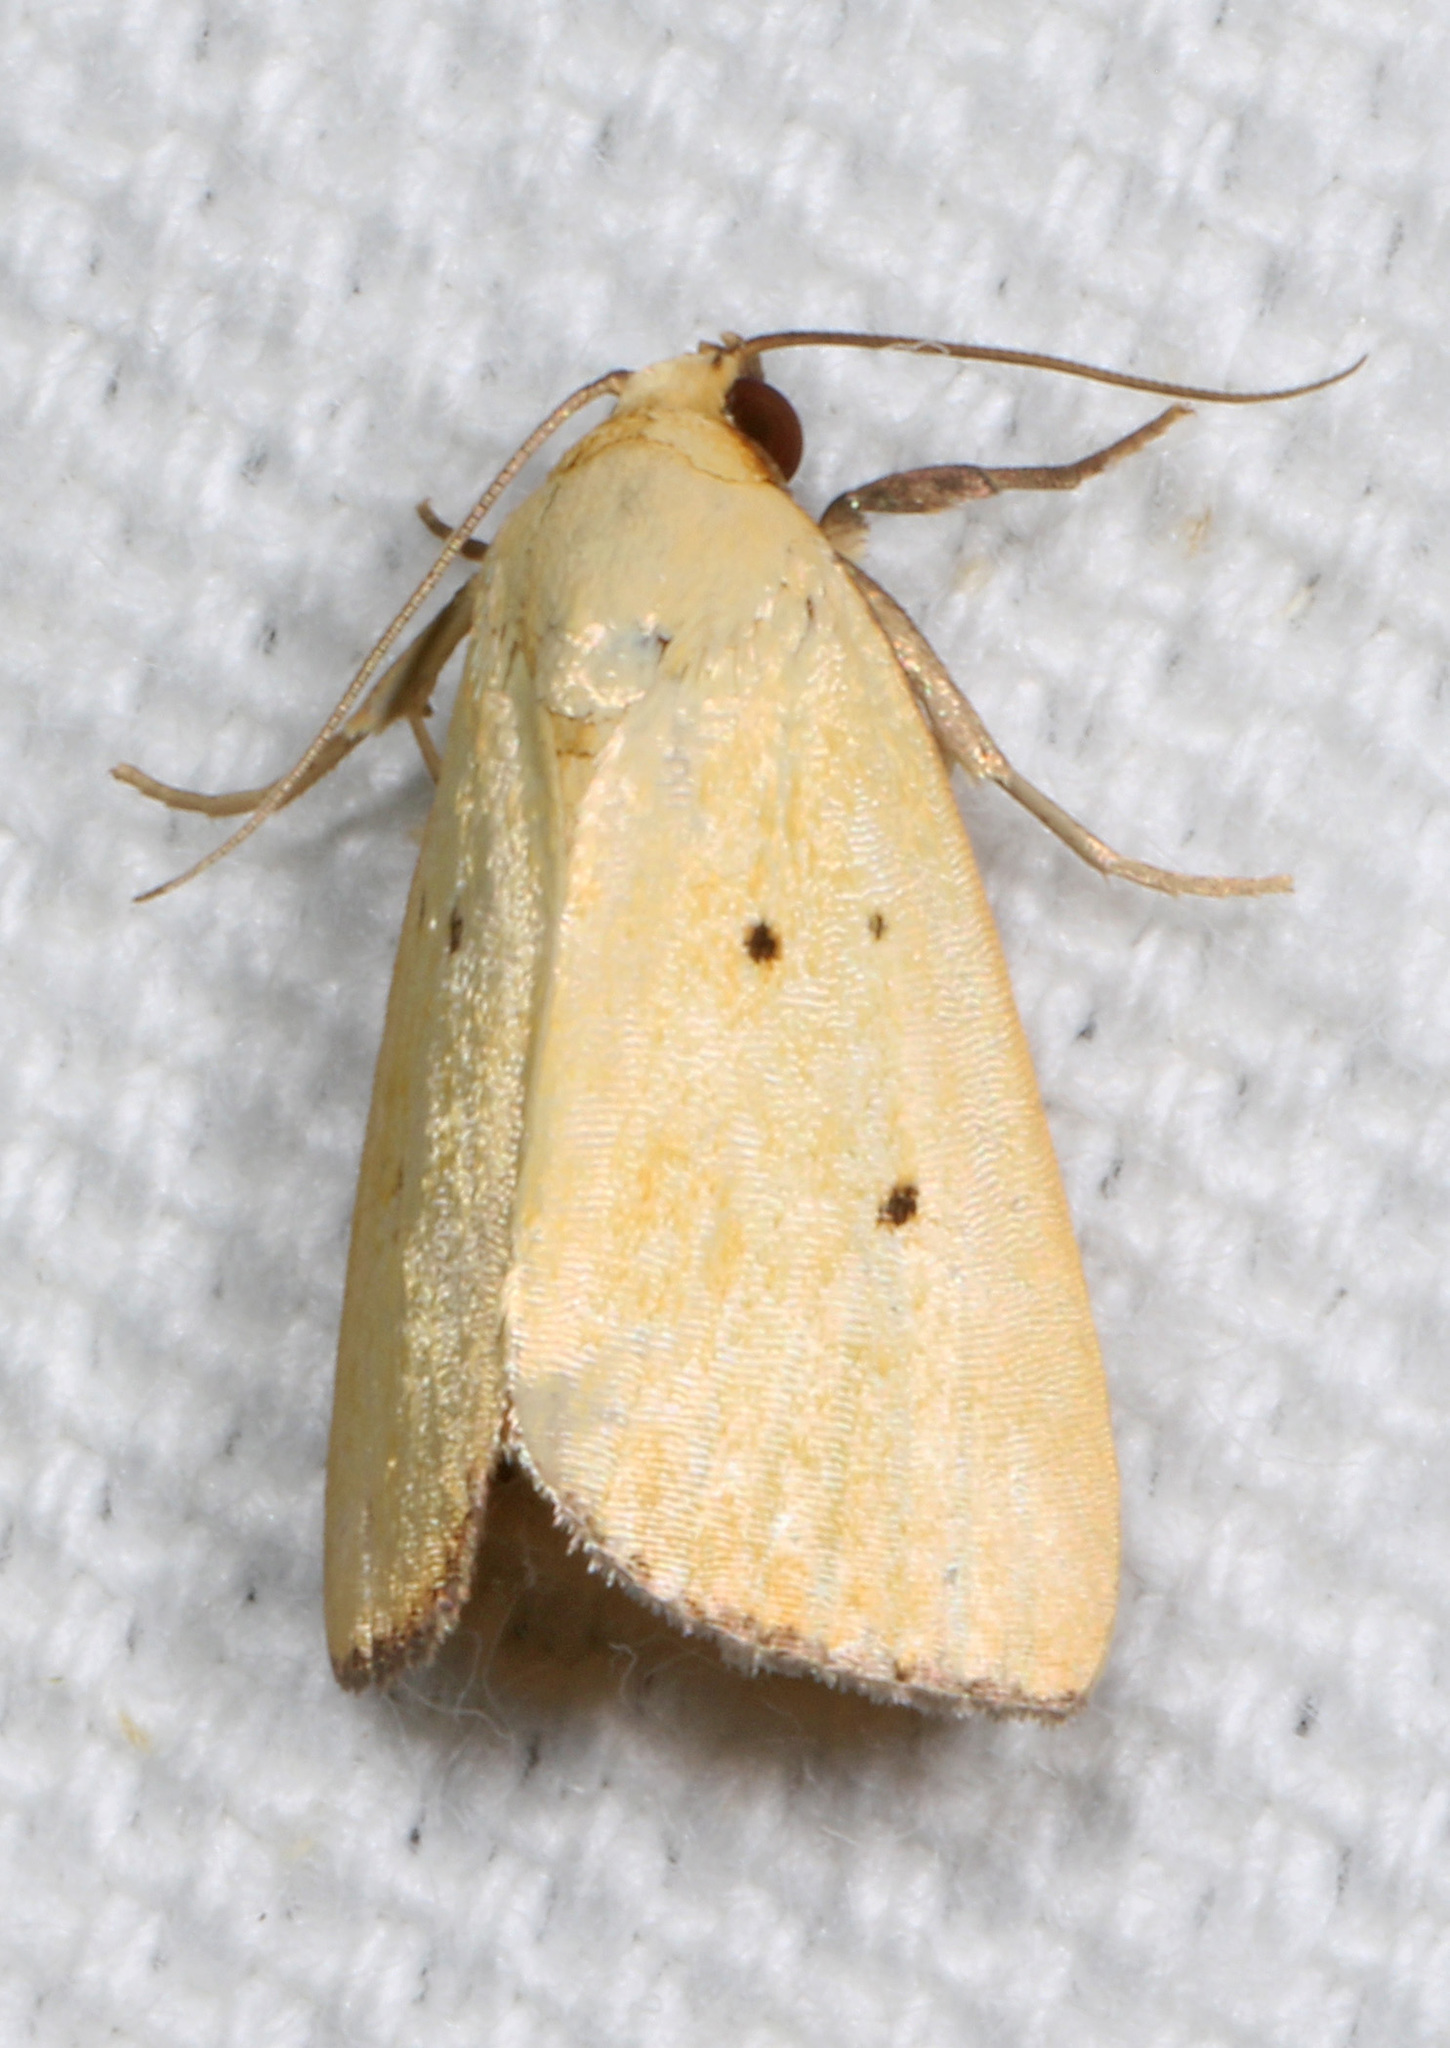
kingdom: Animalia
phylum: Arthropoda
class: Insecta
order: Lepidoptera
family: Noctuidae
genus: Marimatha
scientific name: Marimatha nigrofimbria
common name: Black-bordered lemon moth
